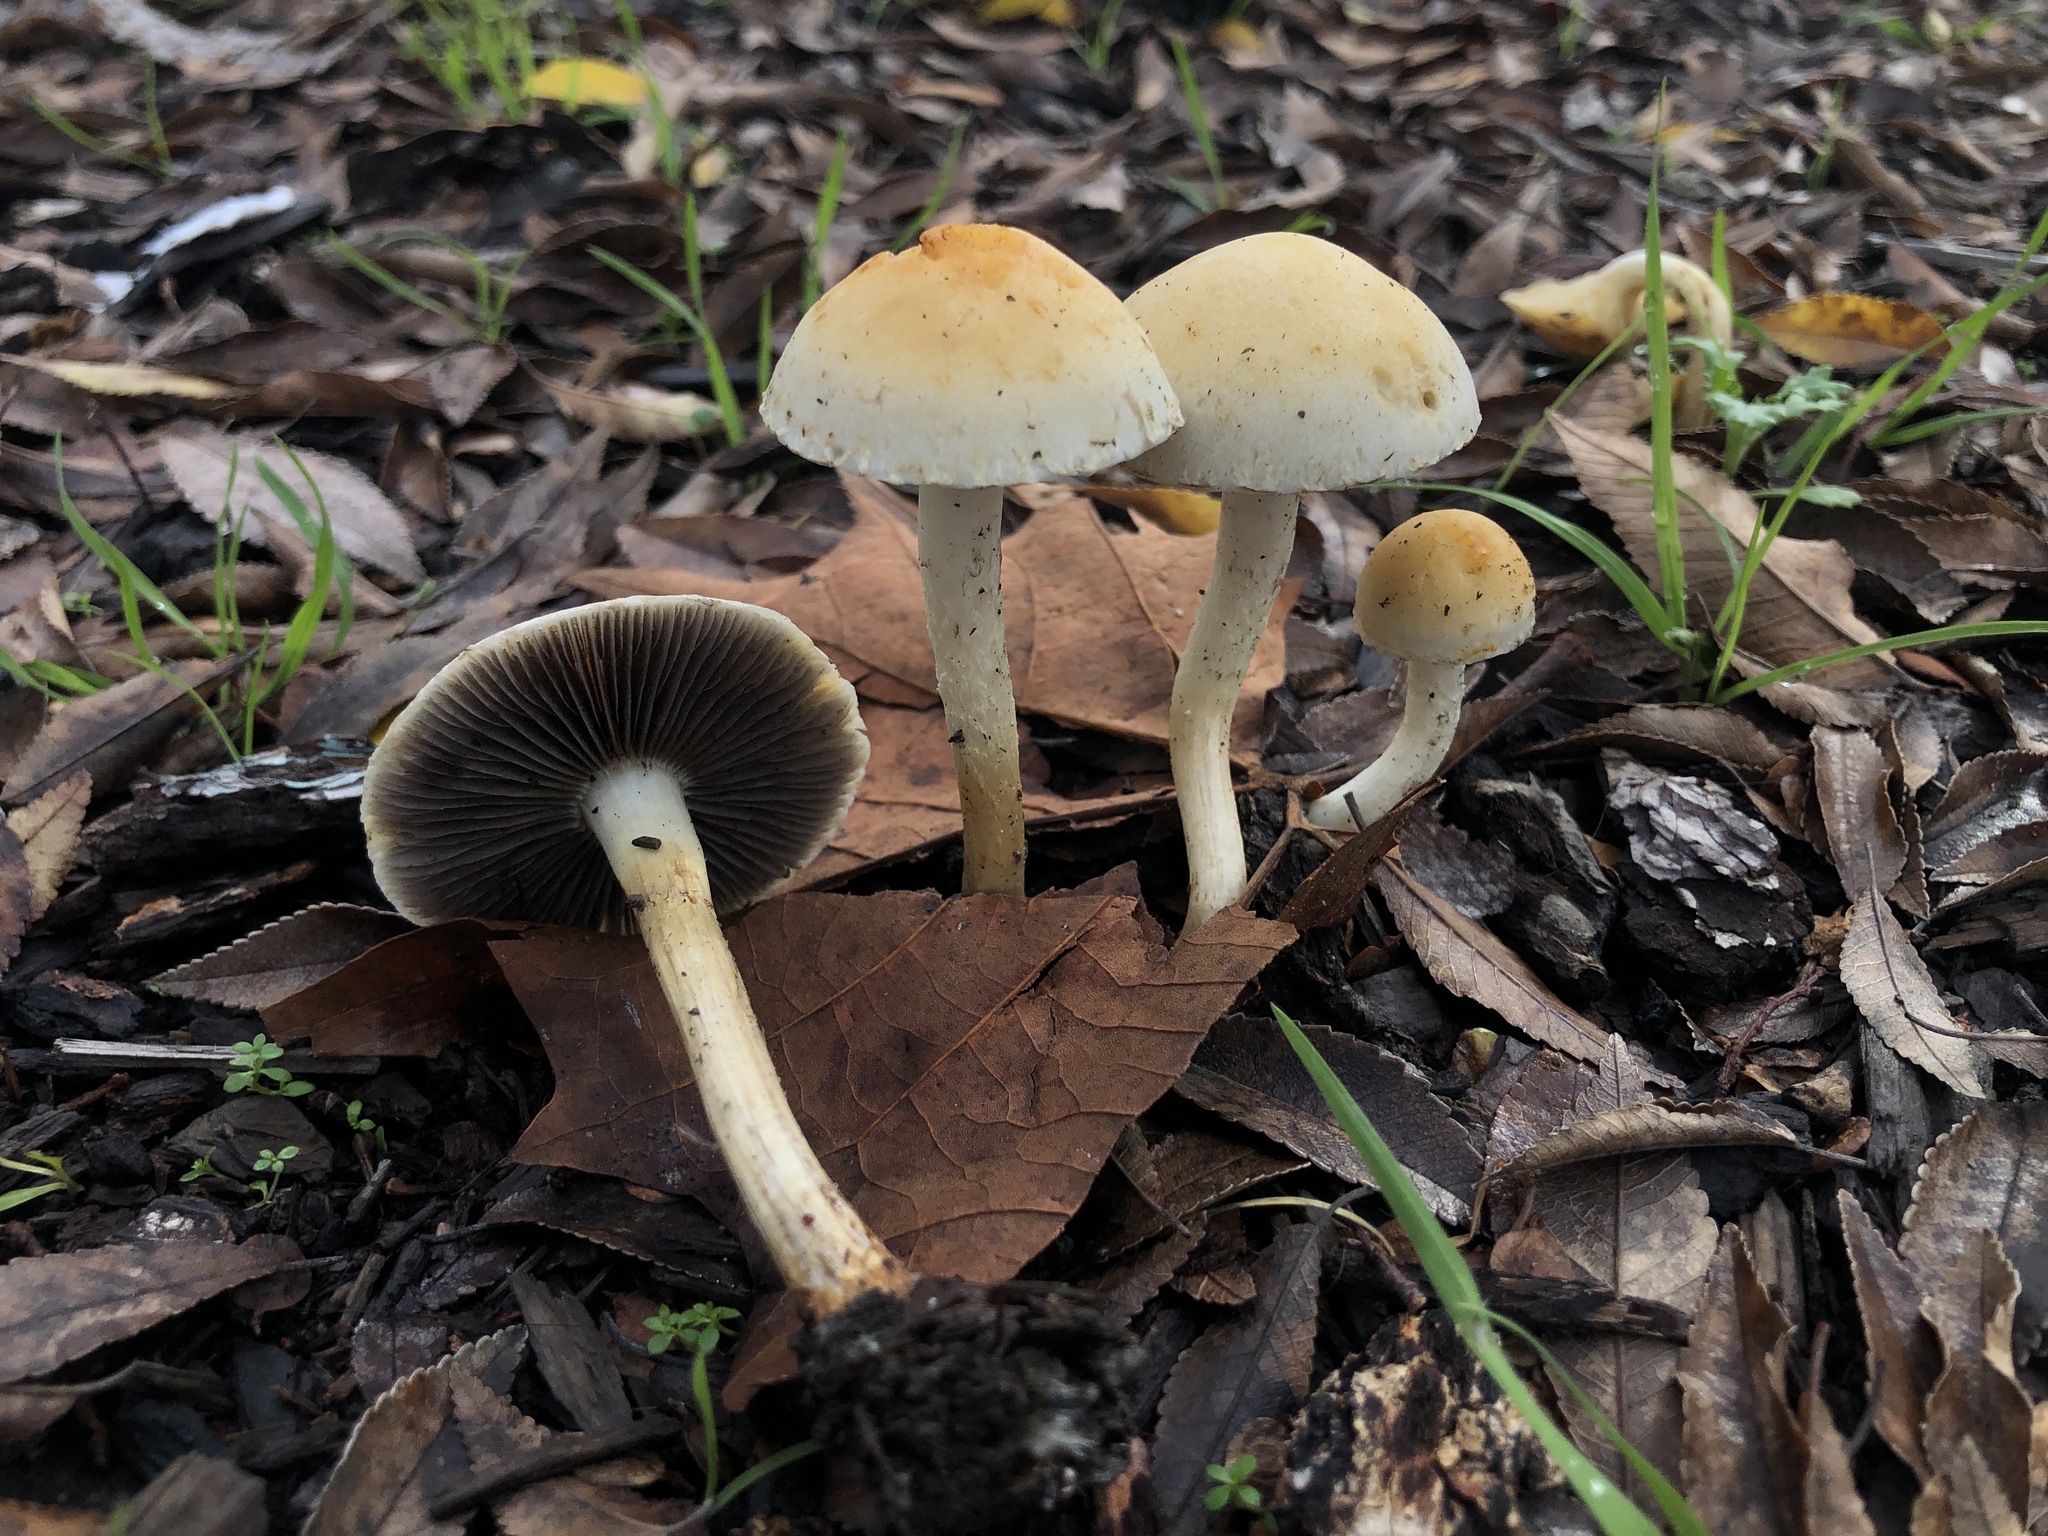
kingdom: Fungi
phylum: Basidiomycota
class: Agaricomycetes
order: Agaricales
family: Strophariaceae
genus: Leratiomyces
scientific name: Leratiomyces percevalii
